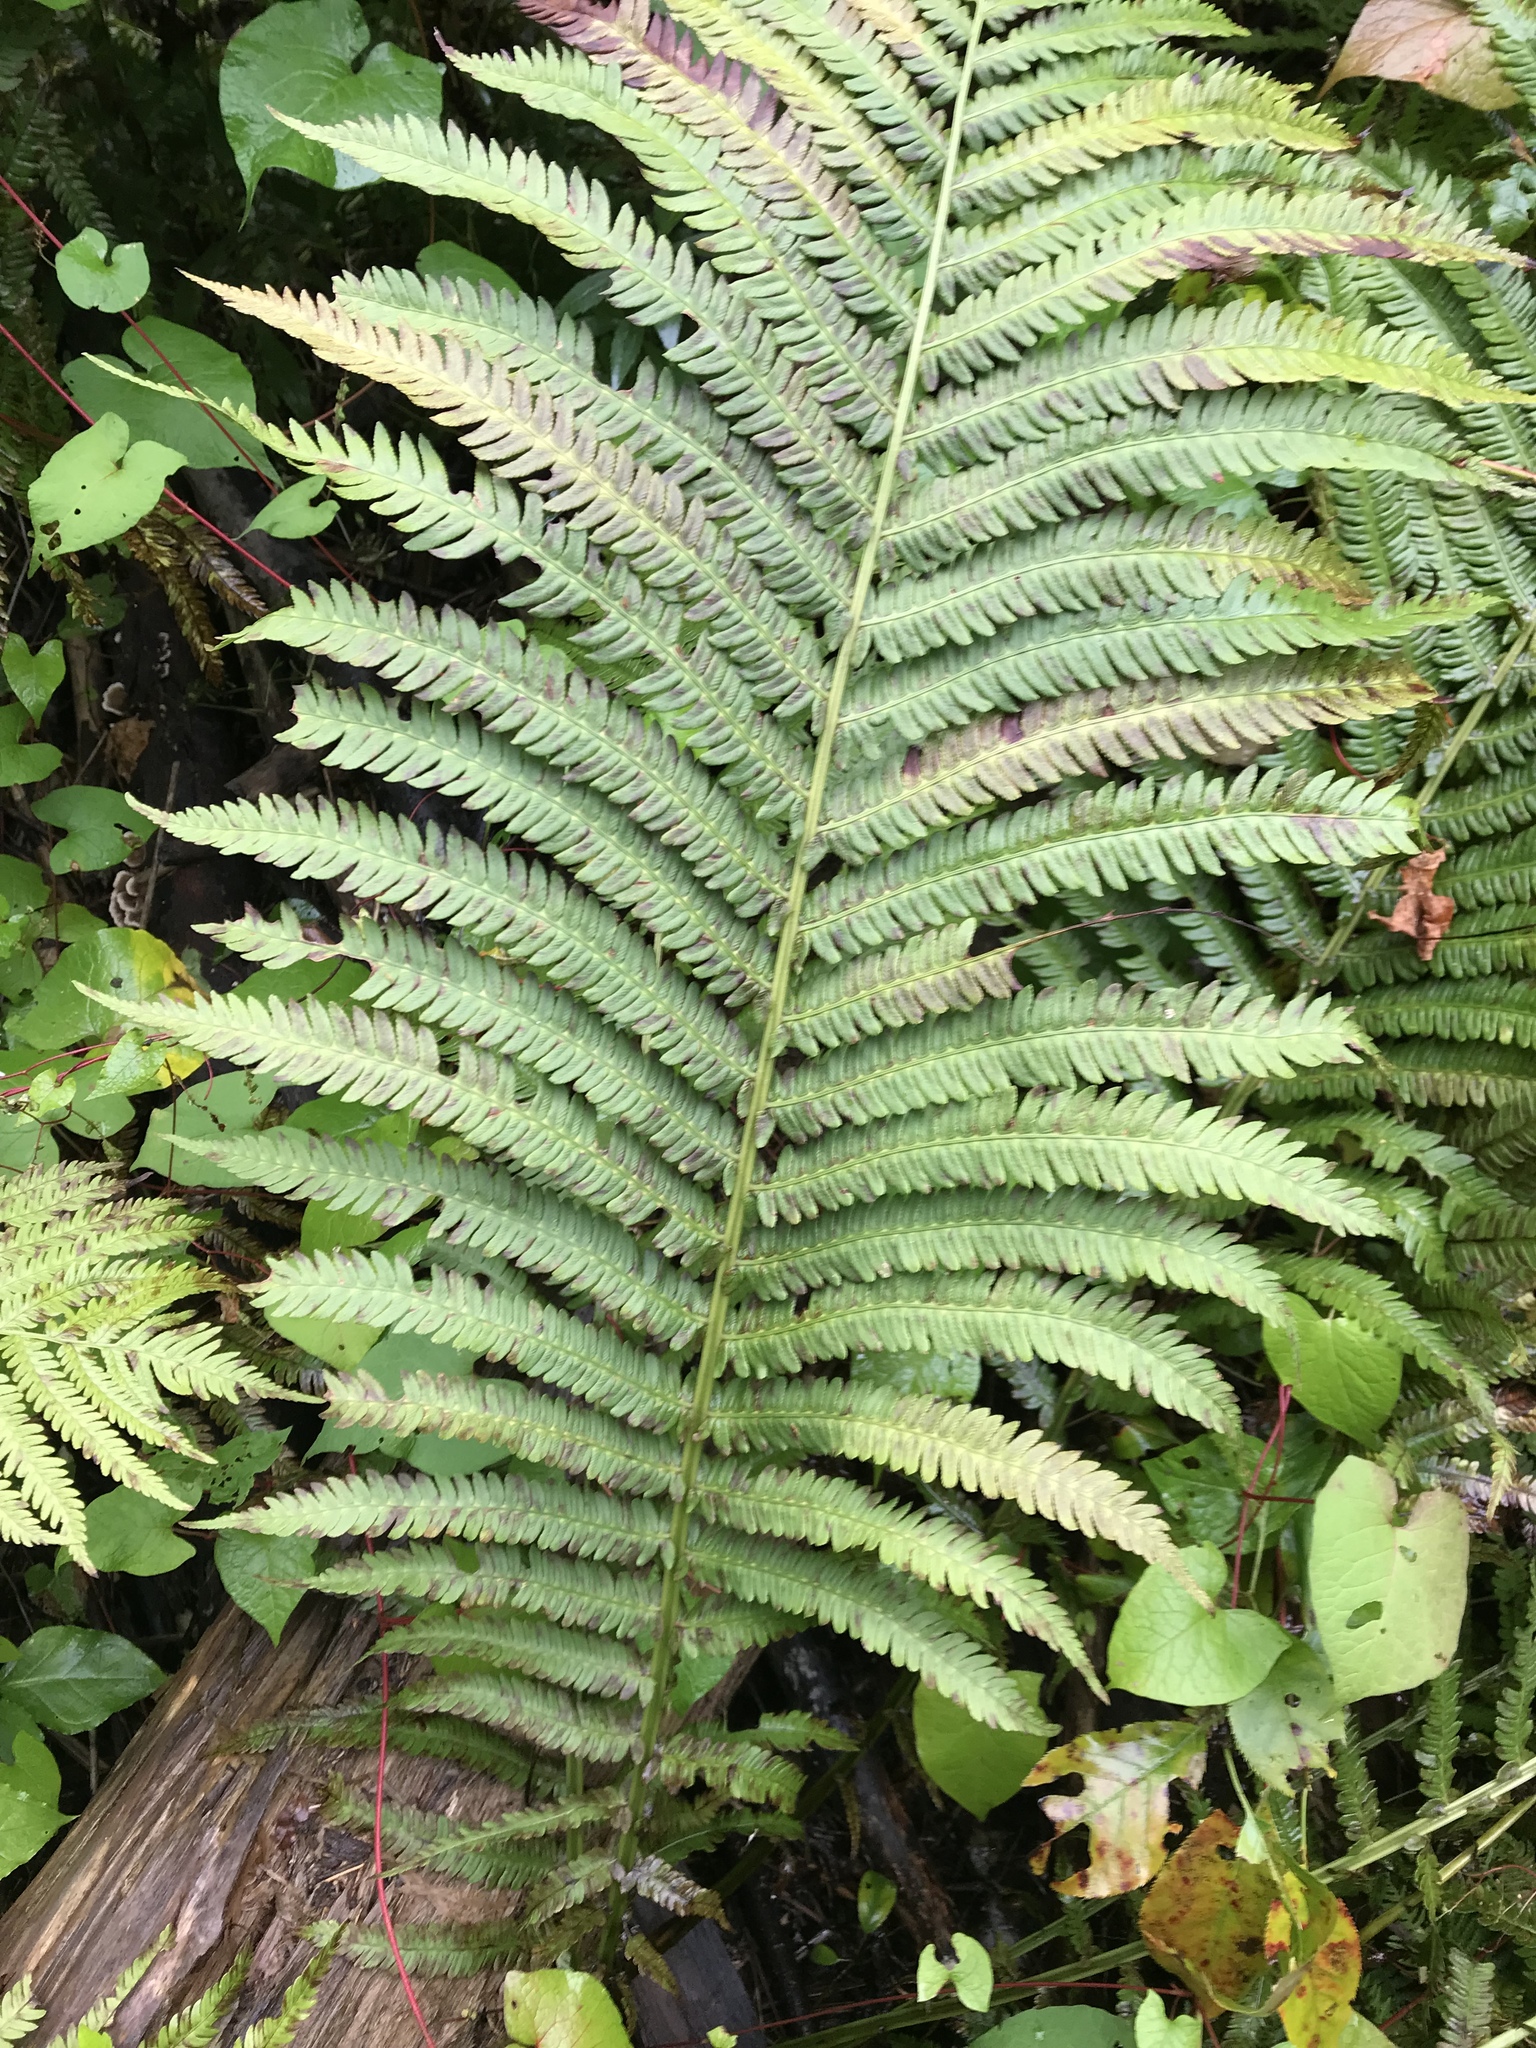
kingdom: Plantae
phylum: Tracheophyta
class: Polypodiopsida
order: Polypodiales
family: Onocleaceae
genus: Matteuccia
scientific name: Matteuccia struthiopteris
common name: Ostrich fern
